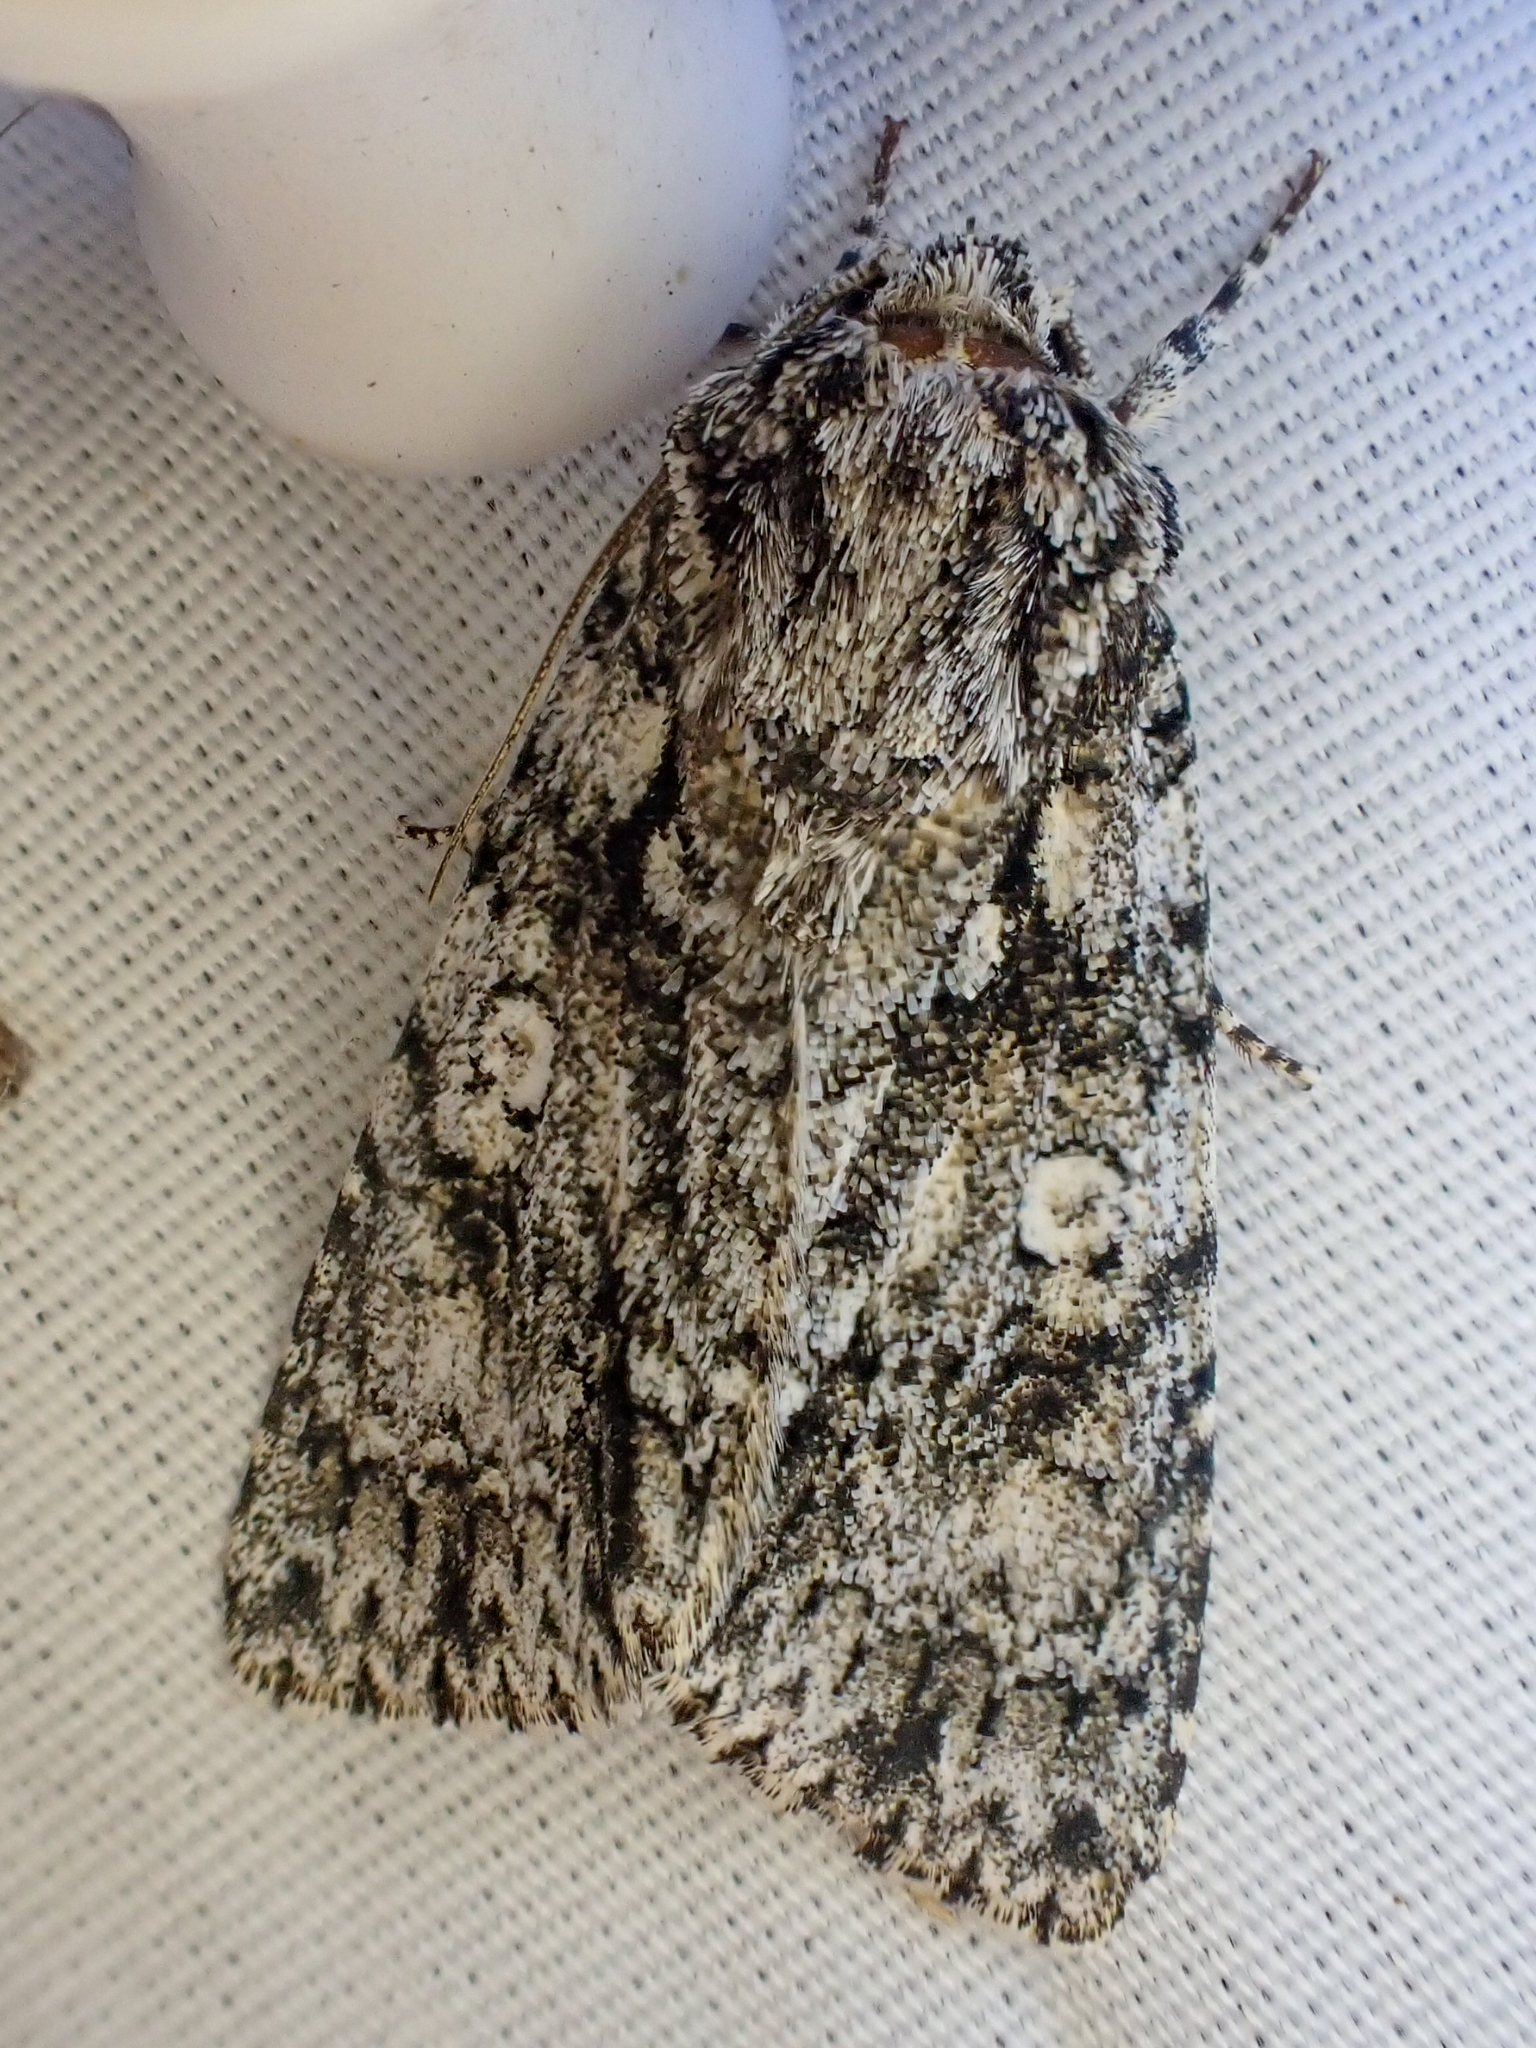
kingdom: Animalia
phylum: Arthropoda
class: Insecta
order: Lepidoptera
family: Noctuidae
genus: Acronicta
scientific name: Acronicta marmorata
